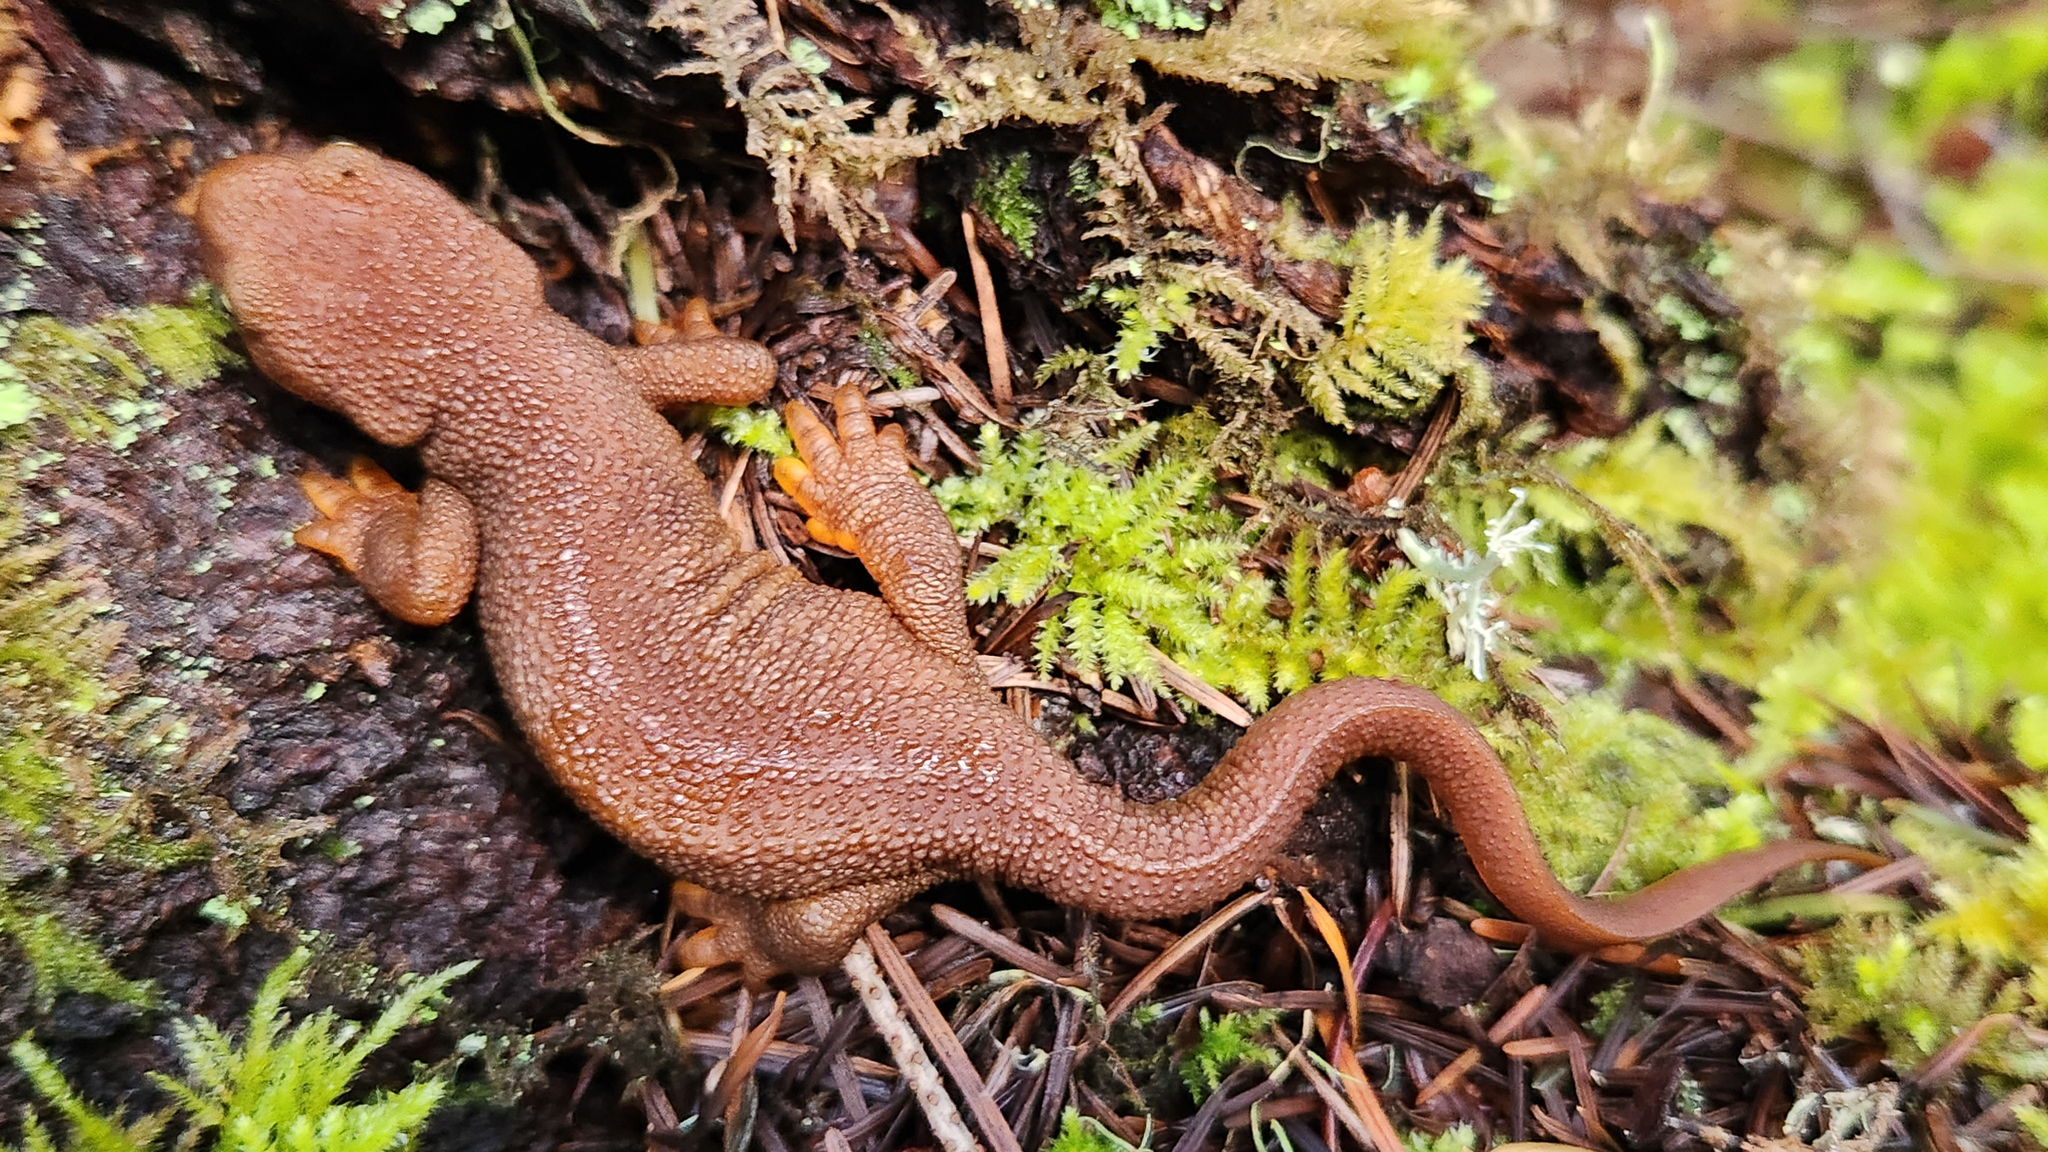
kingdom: Animalia
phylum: Chordata
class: Amphibia
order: Caudata
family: Salamandridae
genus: Taricha
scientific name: Taricha granulosa
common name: Roughskin newt
